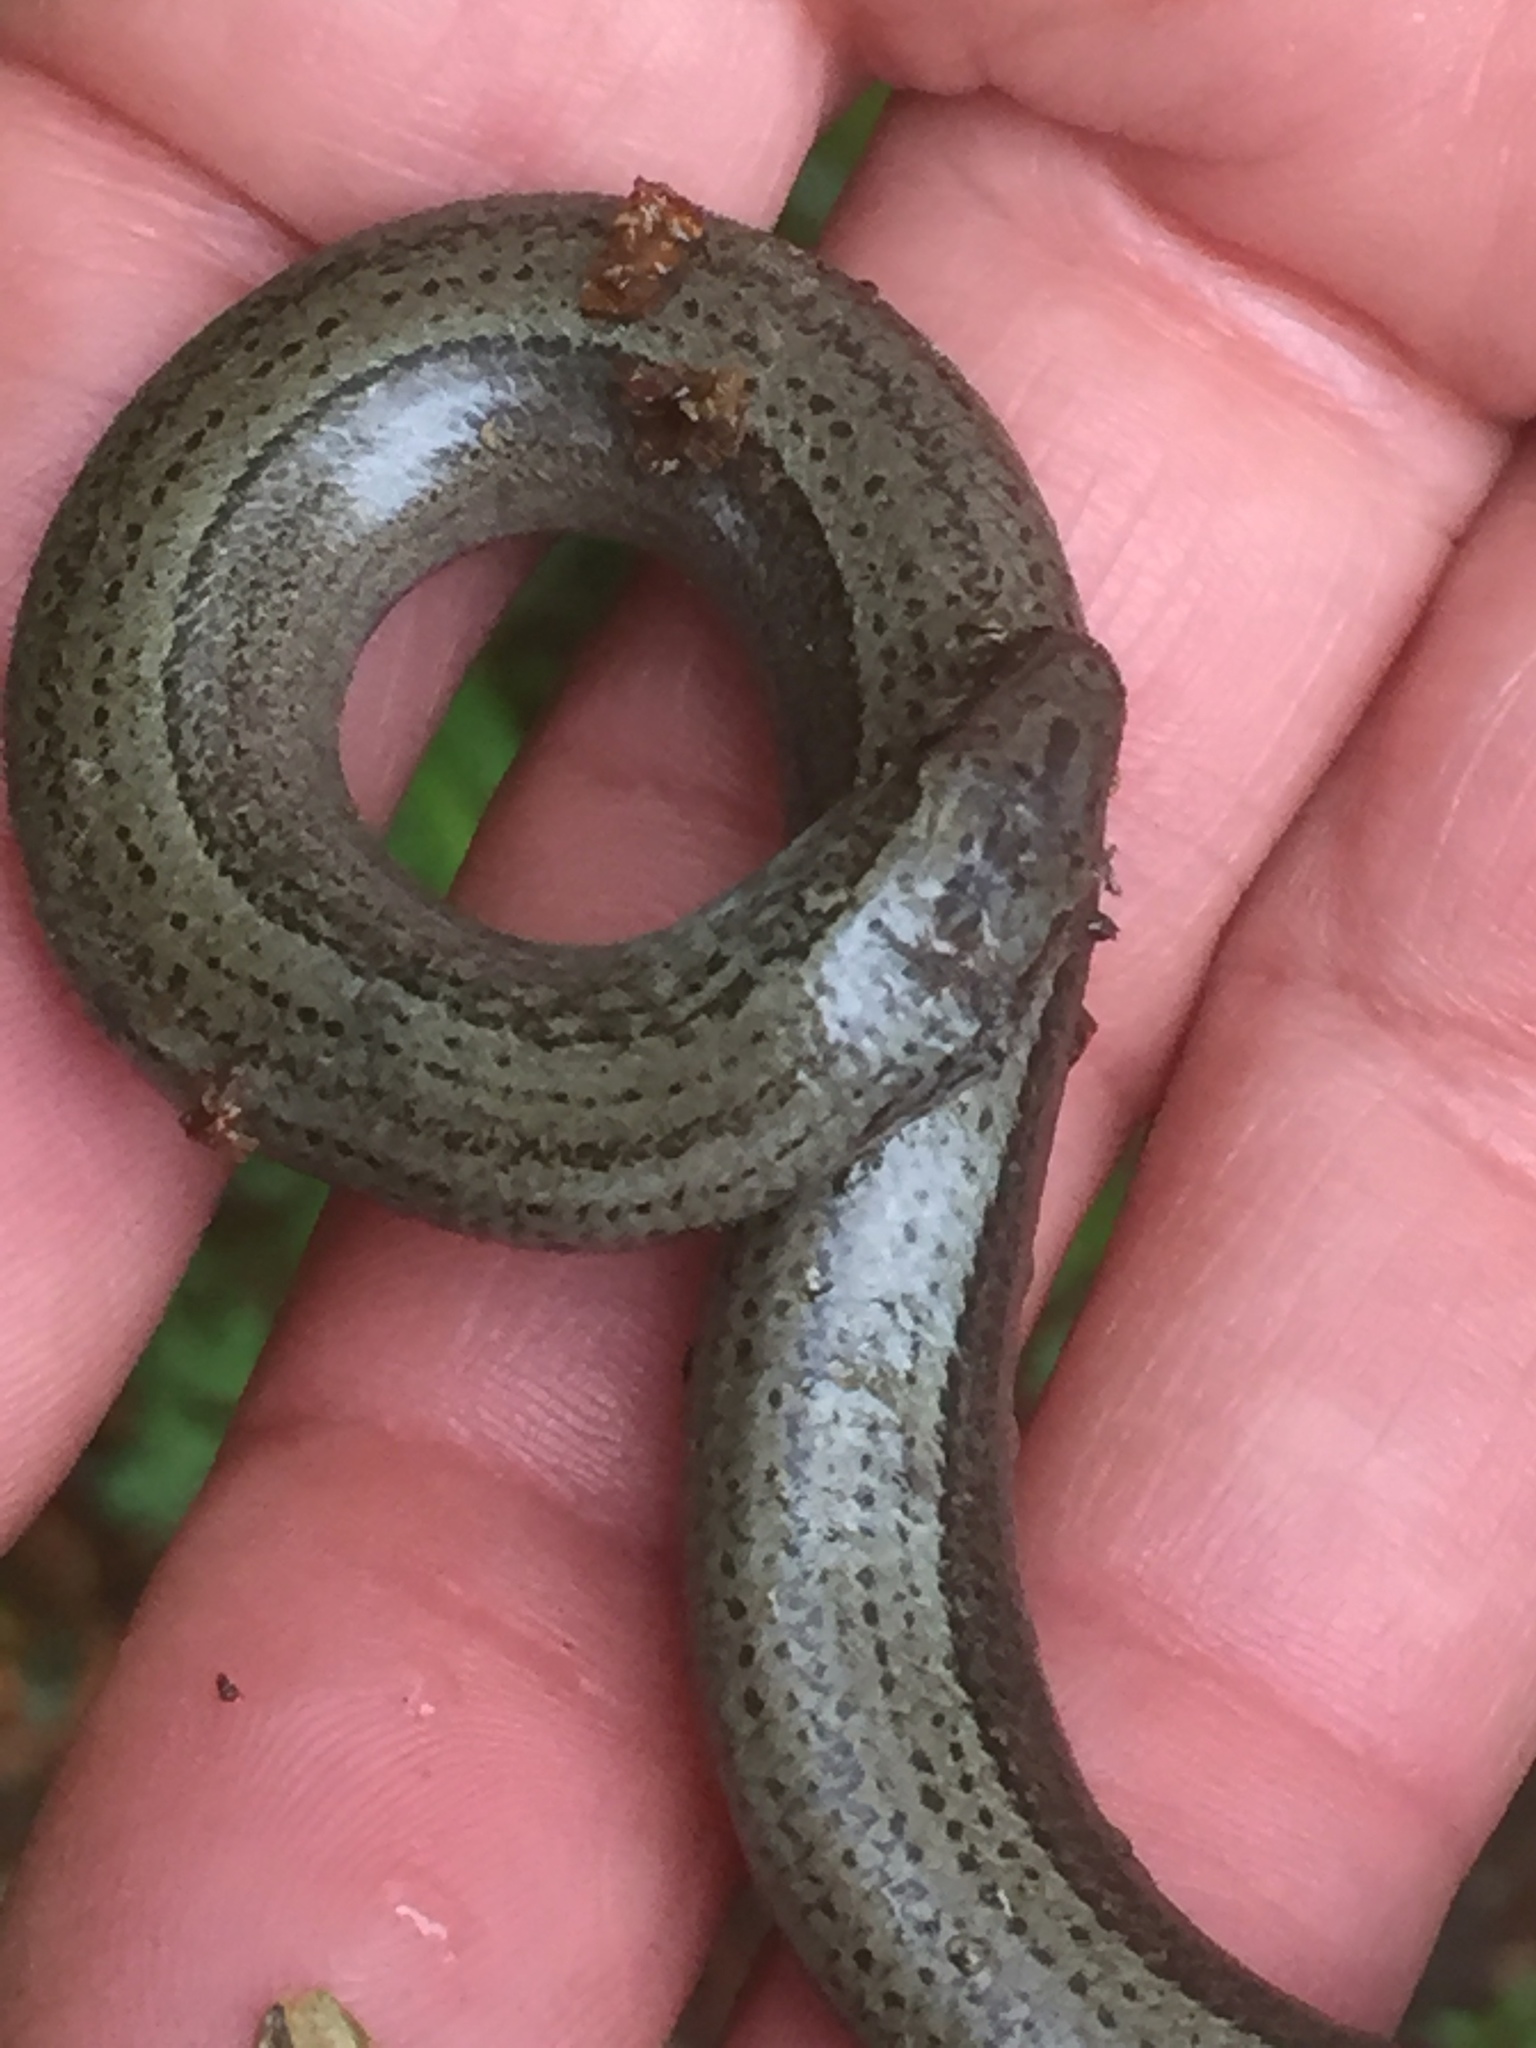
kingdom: Animalia
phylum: Chordata
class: Squamata
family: Anguidae
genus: Anguis
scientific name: Anguis fragilis
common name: Slow worm
